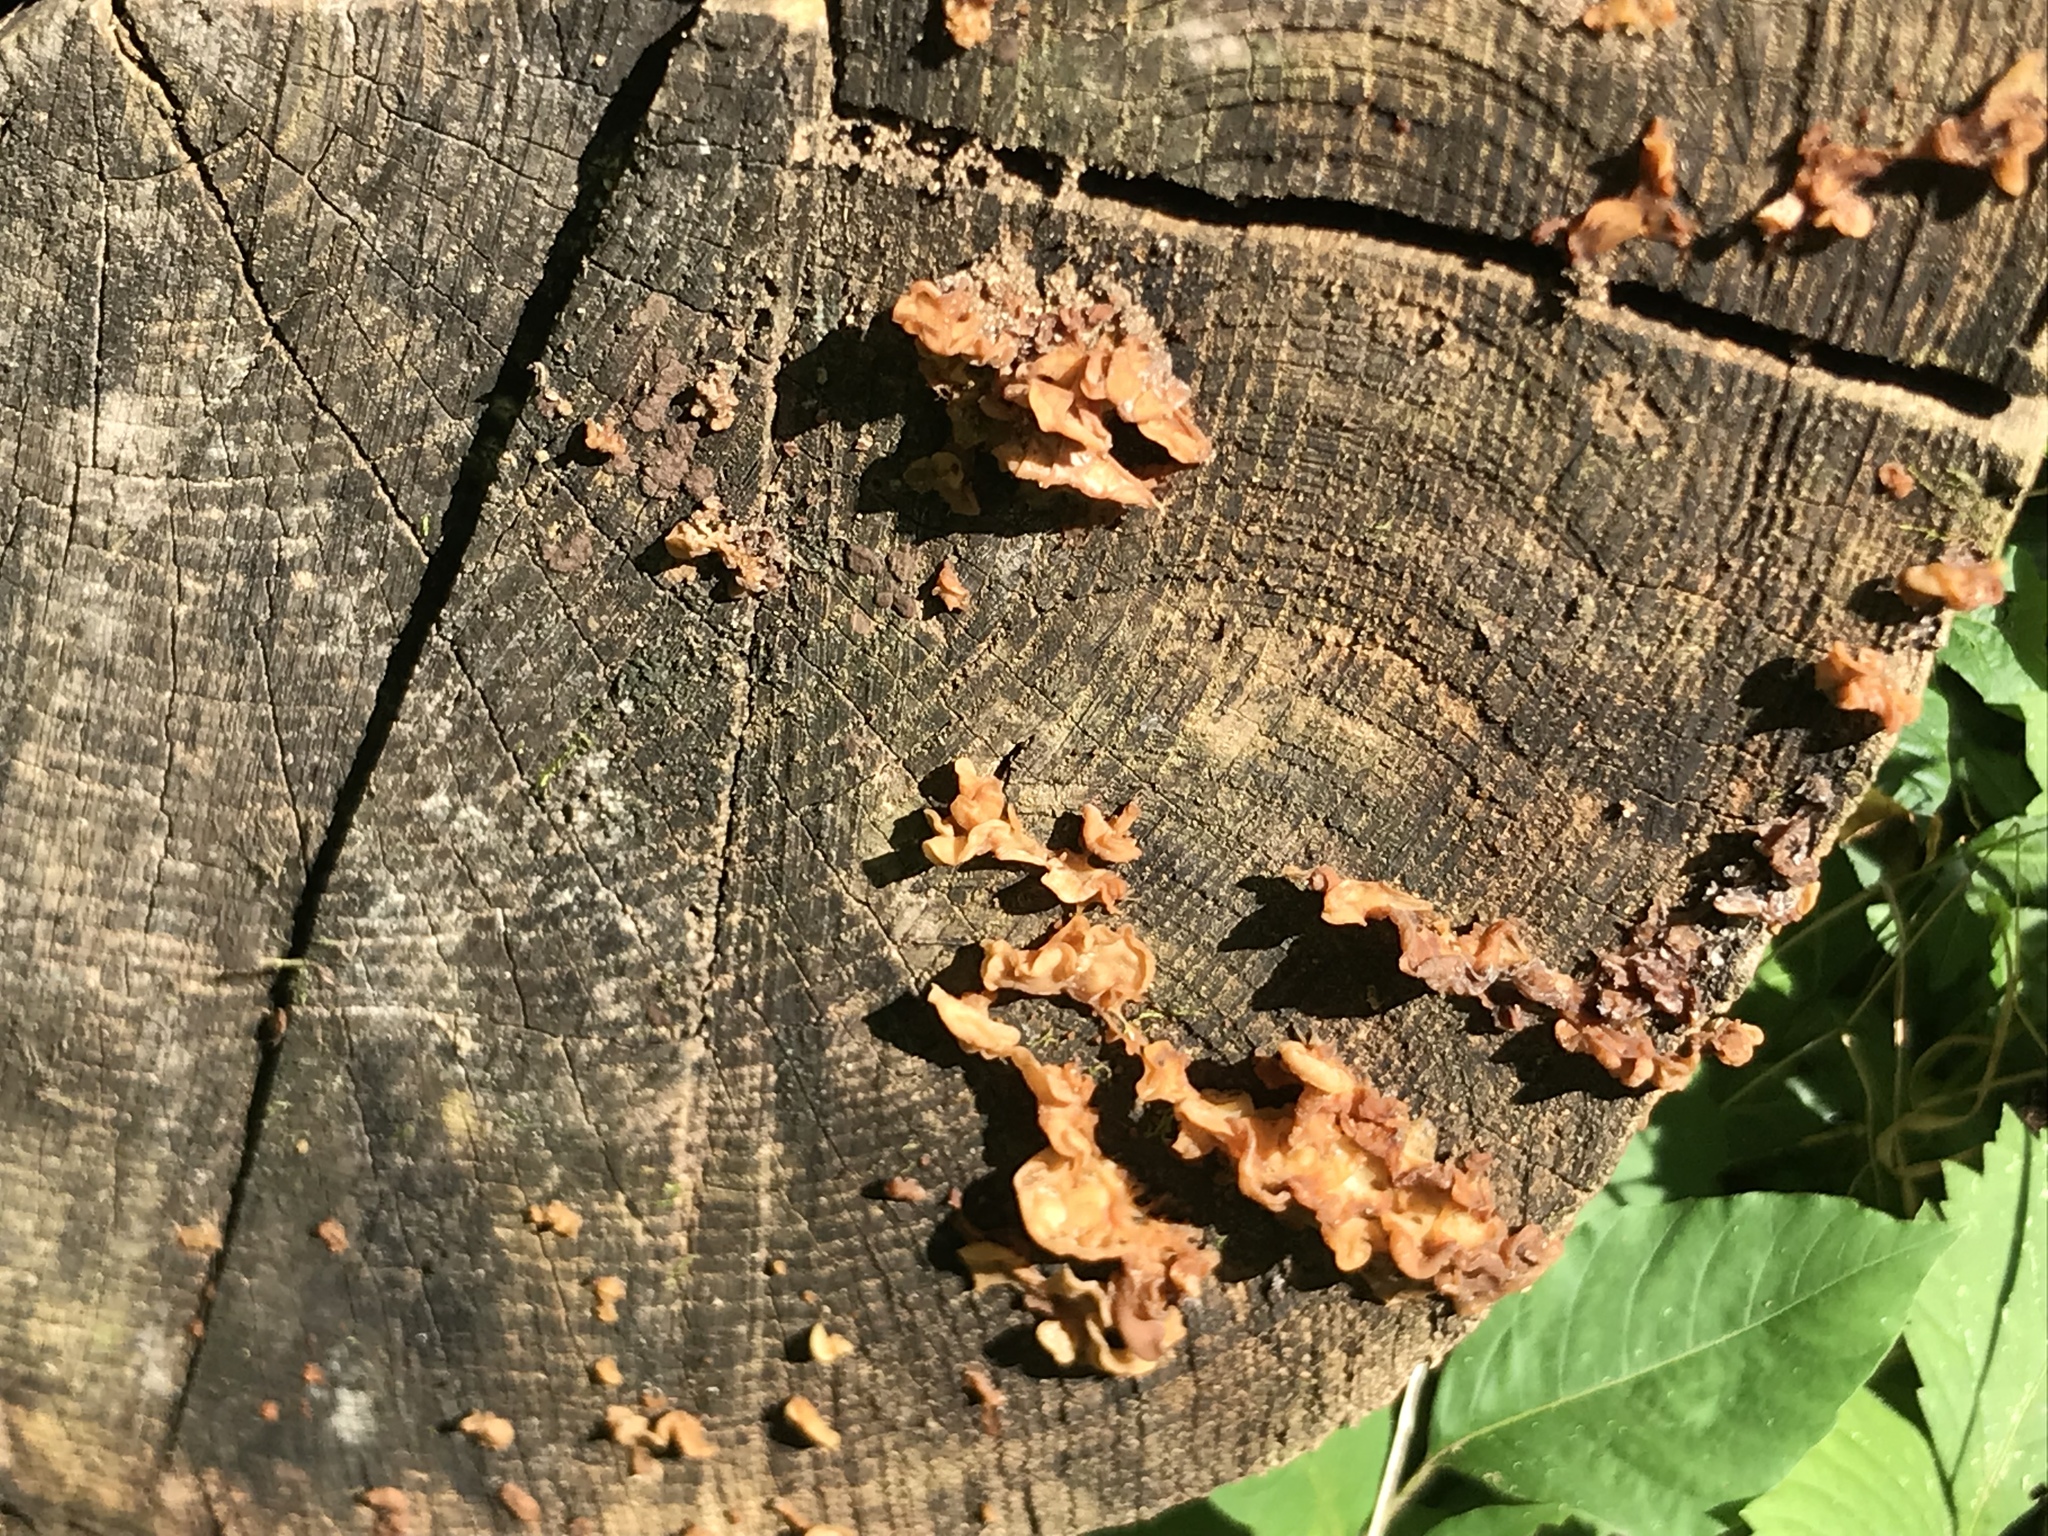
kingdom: Fungi
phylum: Basidiomycota
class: Agaricomycetes
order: Russulales
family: Stereaceae
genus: Stereum
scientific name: Stereum complicatum
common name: Crowded parchment
